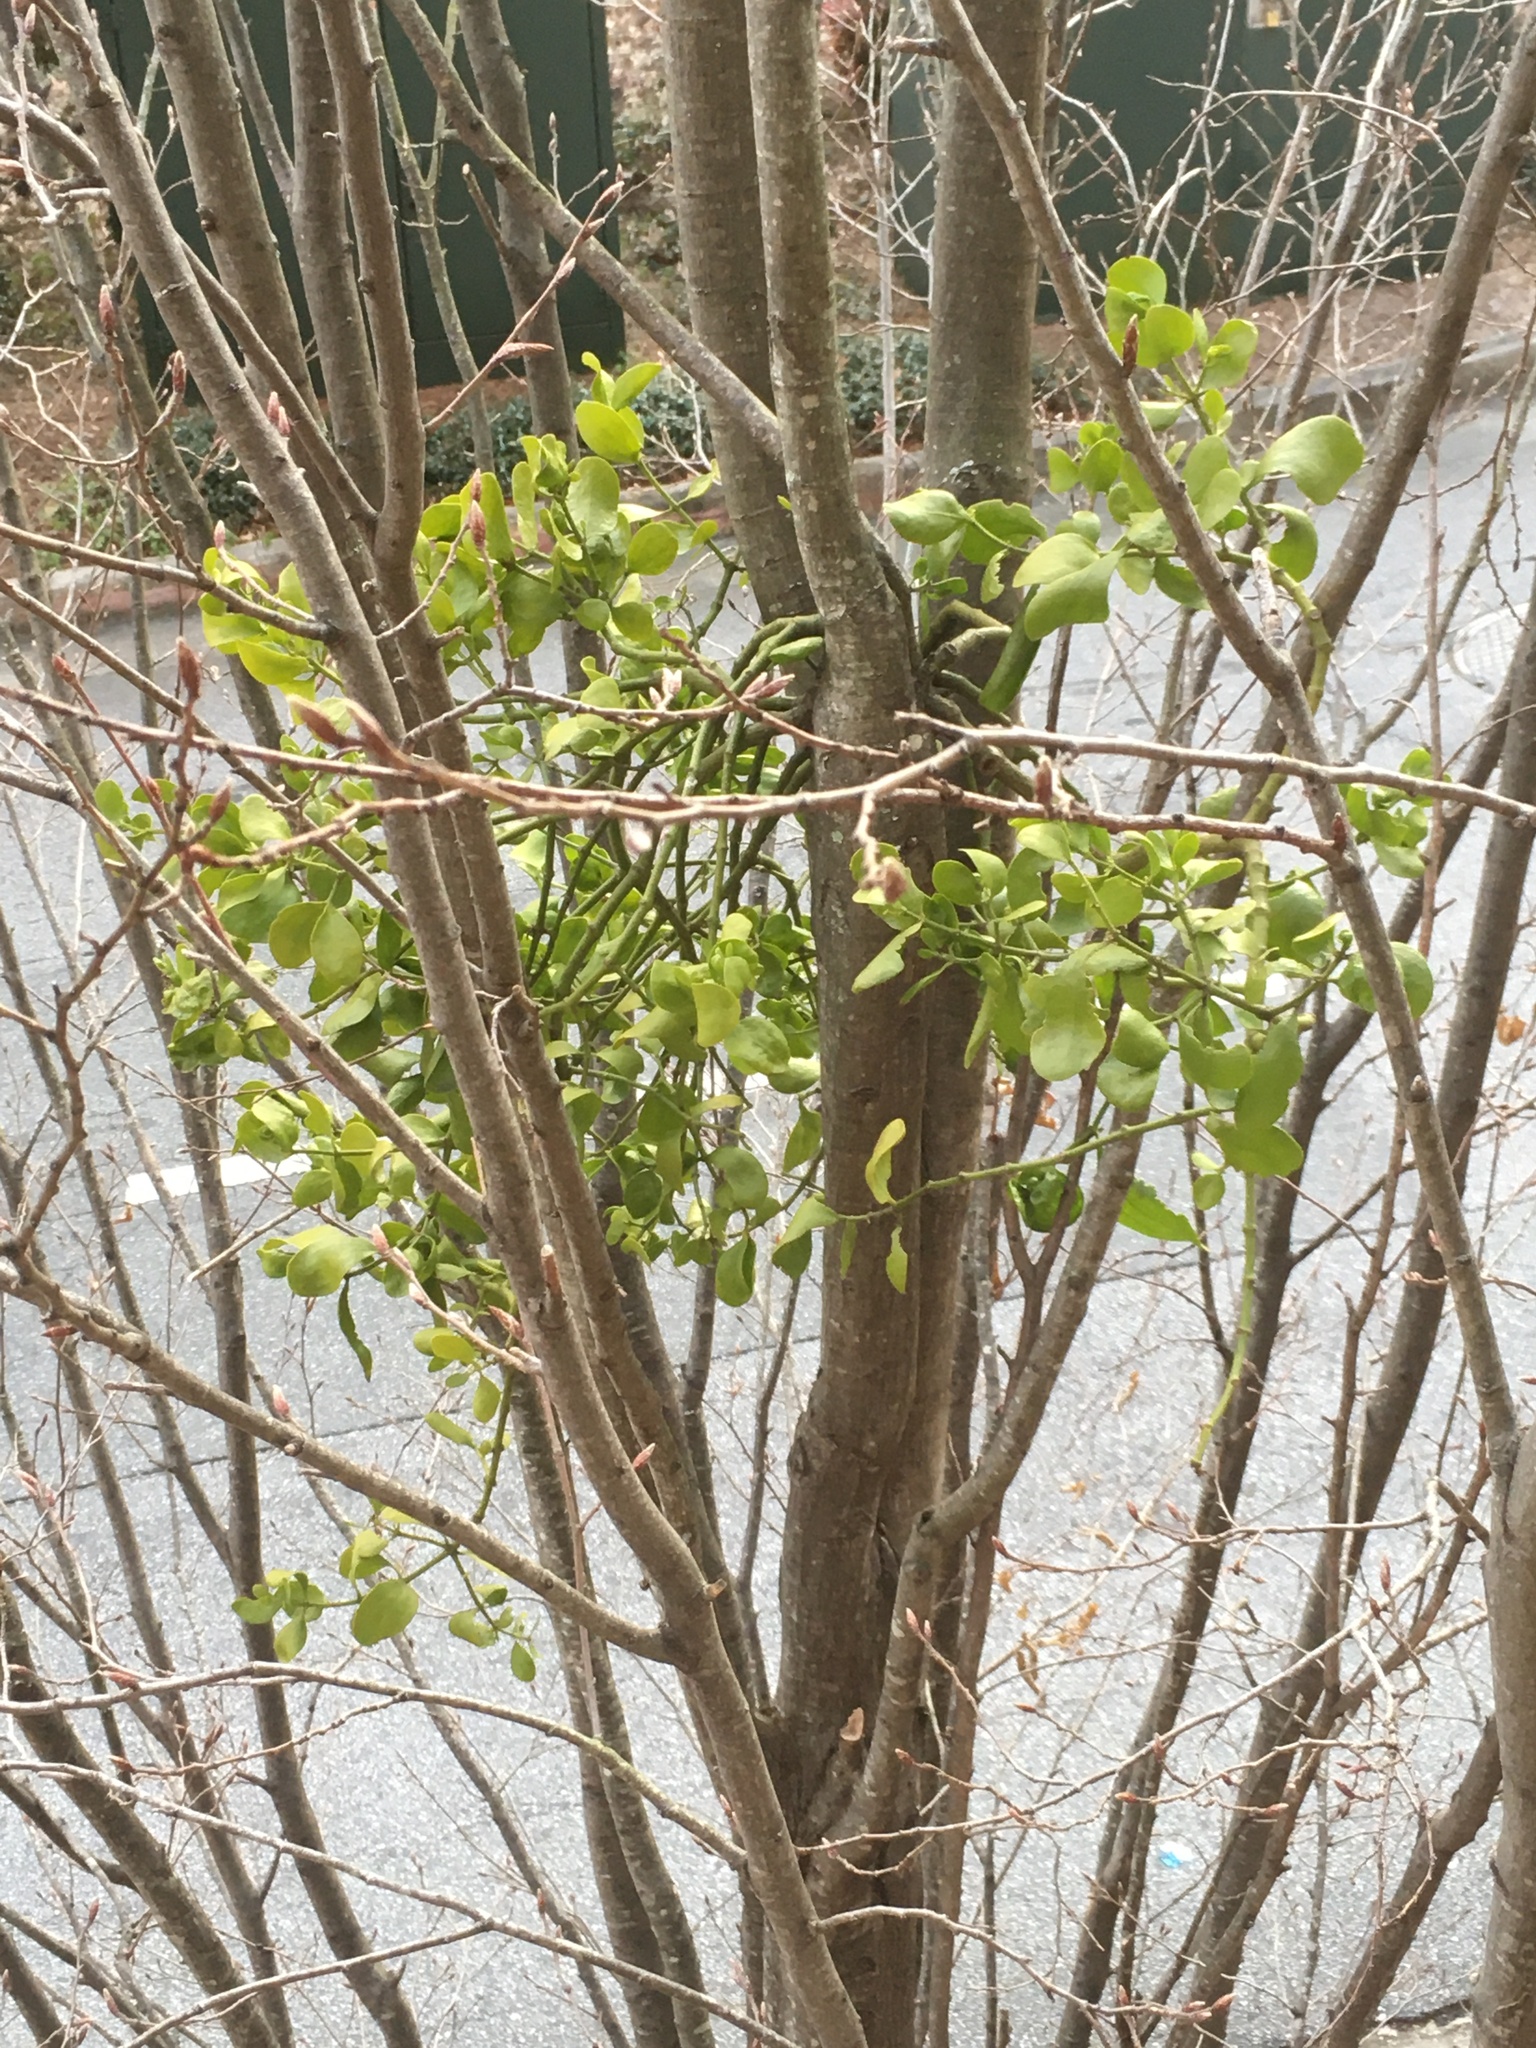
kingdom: Plantae
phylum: Tracheophyta
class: Magnoliopsida
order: Santalales
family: Viscaceae
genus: Phoradendron
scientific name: Phoradendron leucarpum
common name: Pacific mistletoe
